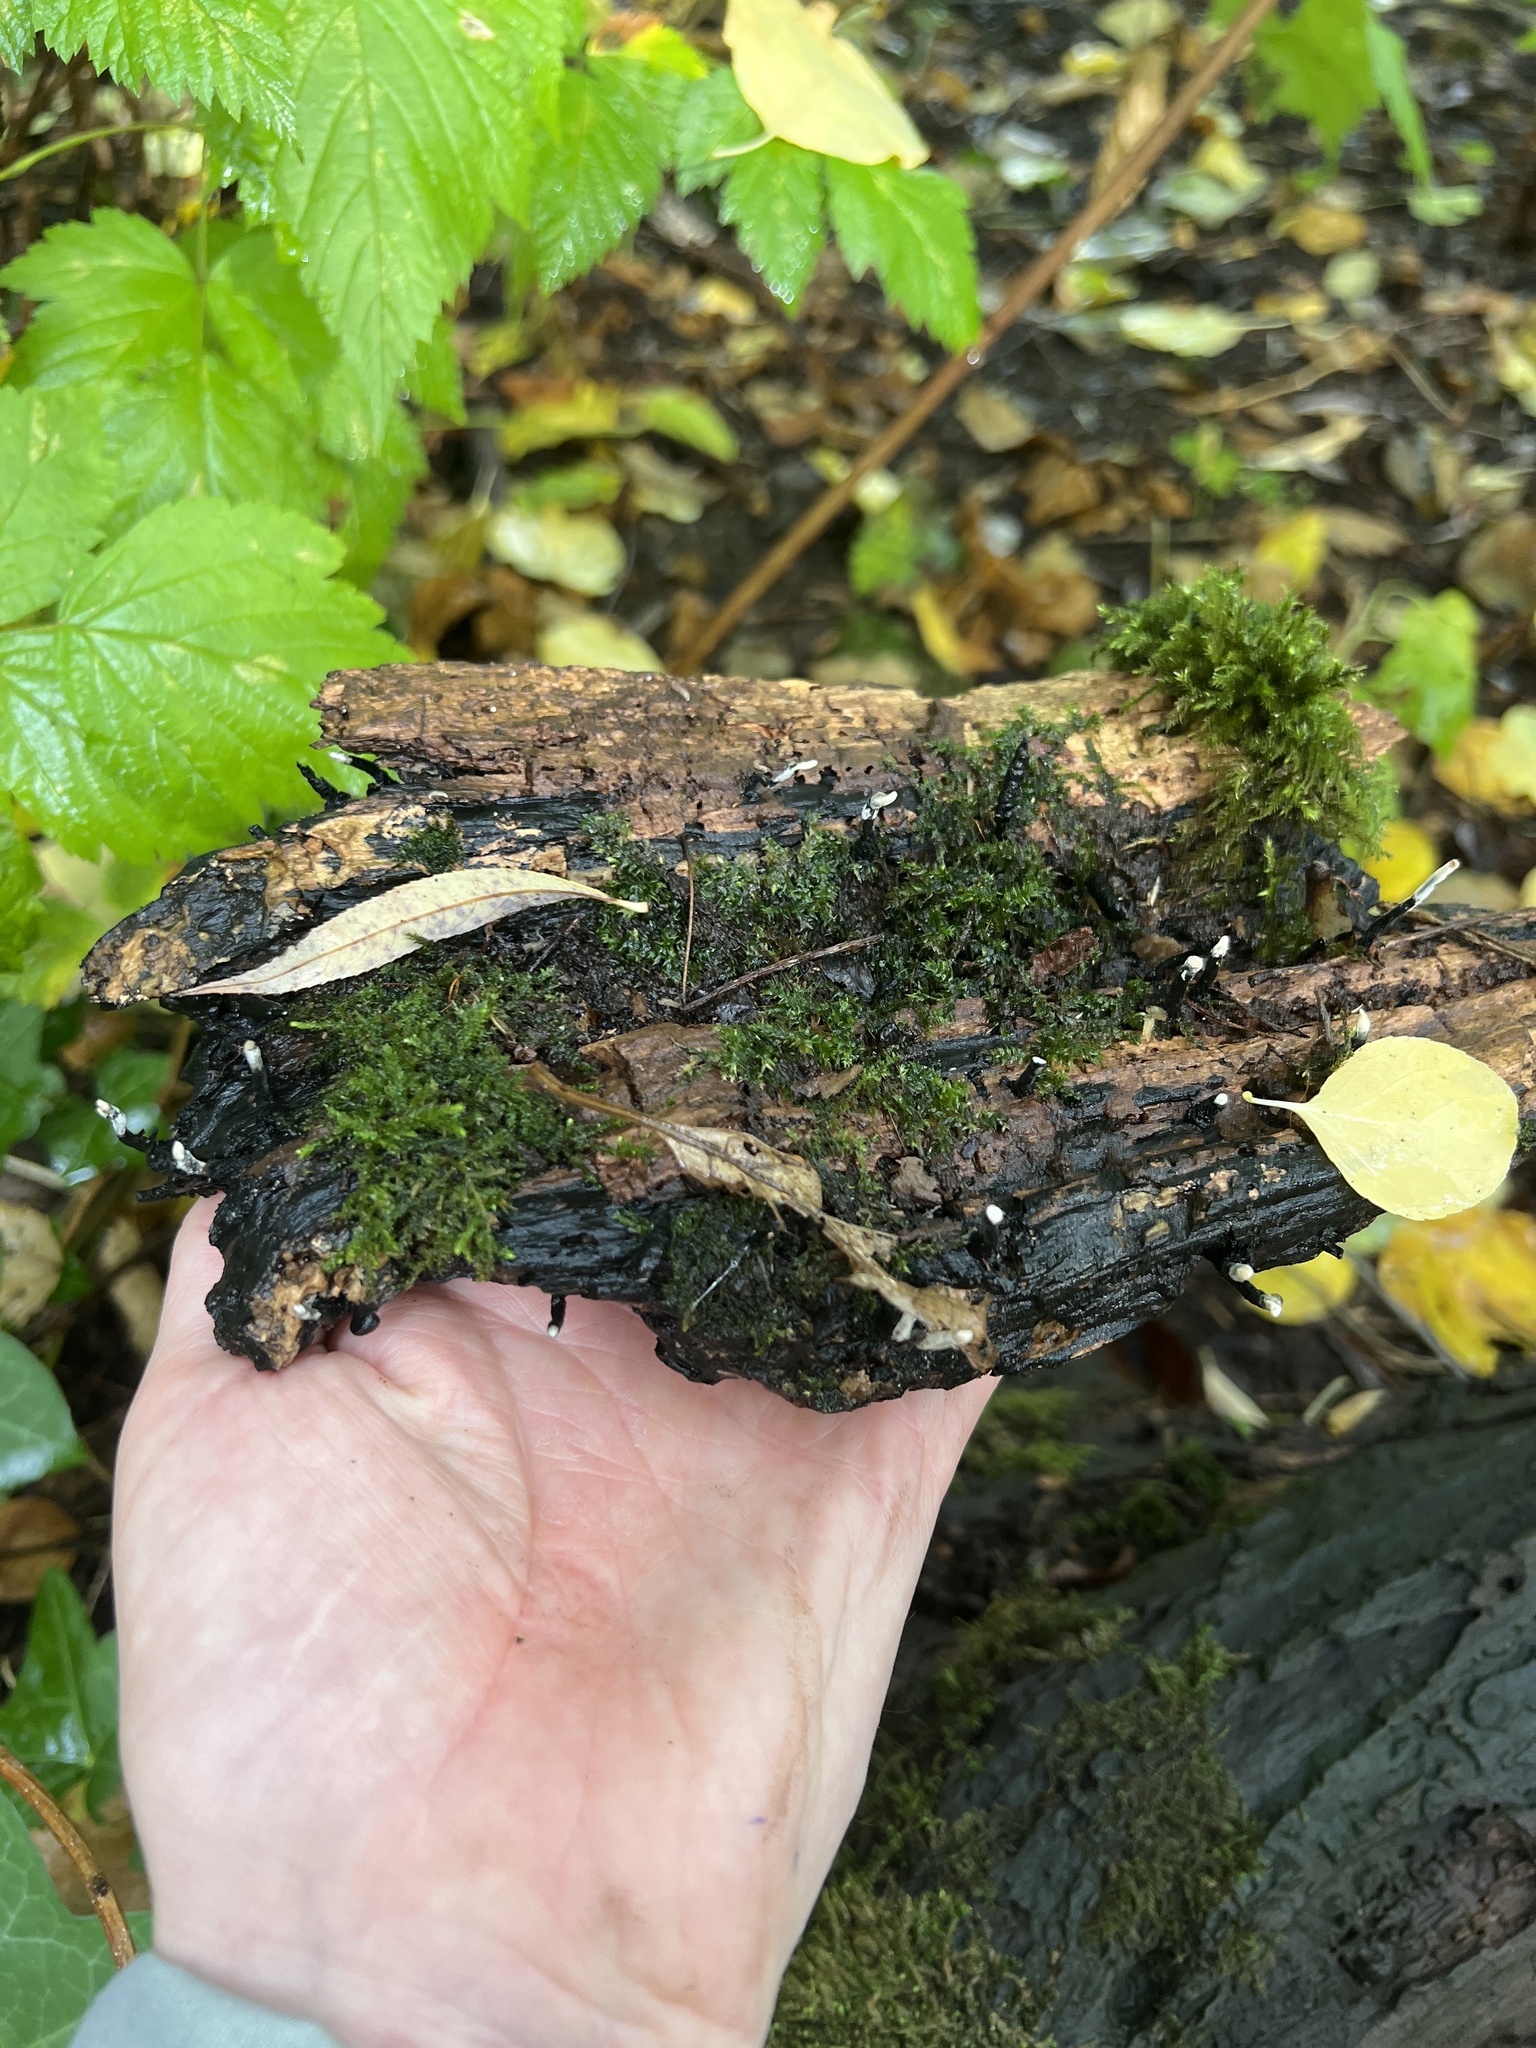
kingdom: Fungi
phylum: Ascomycota
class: Sordariomycetes
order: Xylariales
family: Xylariaceae
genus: Xylaria
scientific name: Xylaria hypoxylon
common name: Candle-snuff fungus
